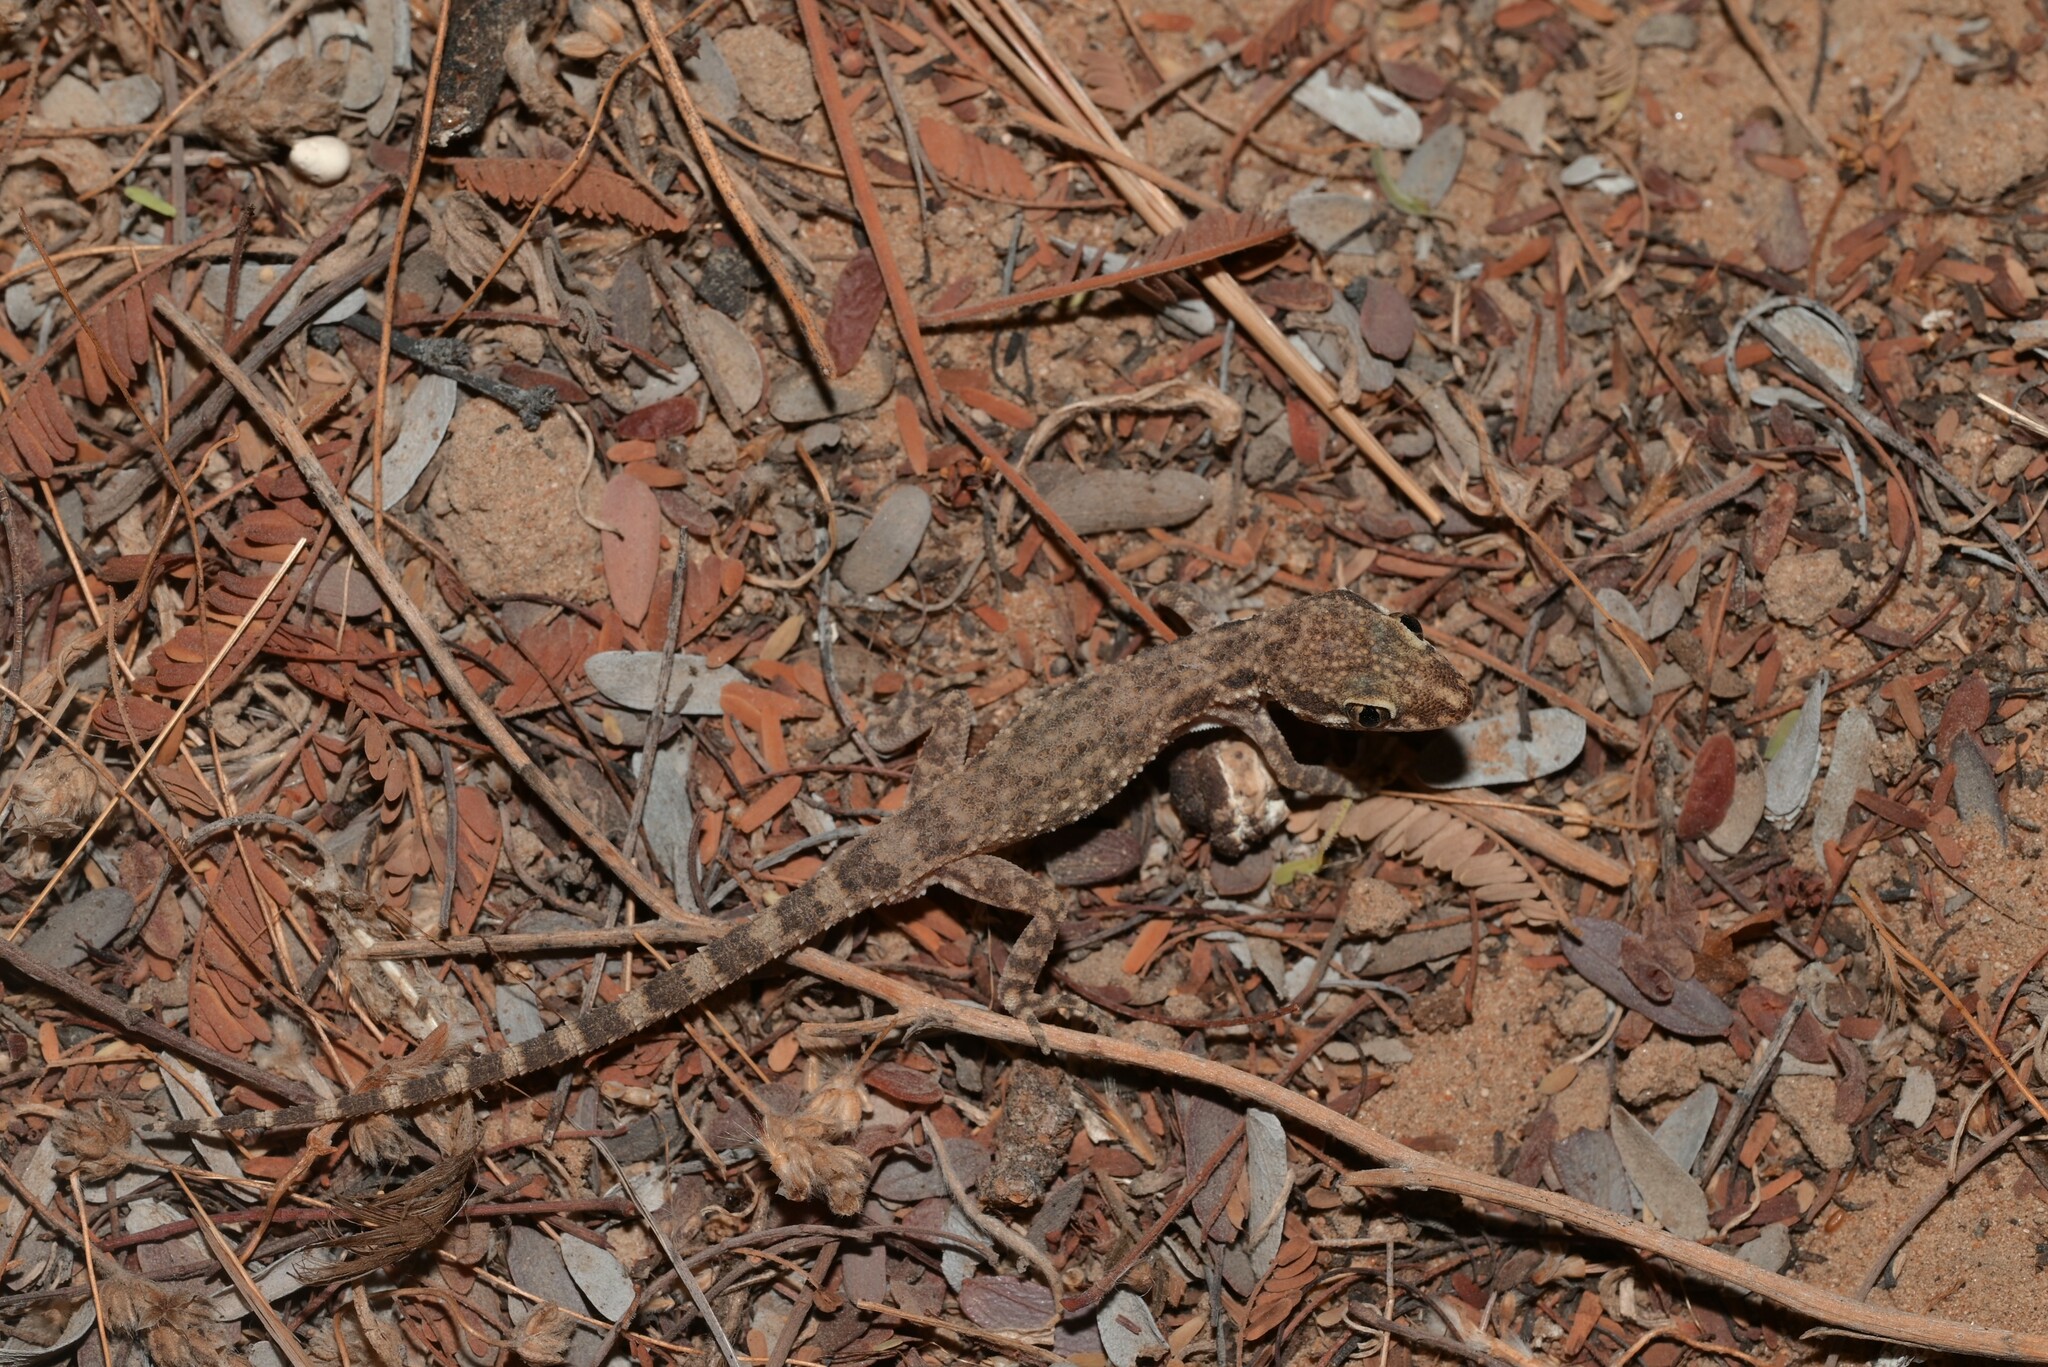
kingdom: Animalia
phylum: Chordata
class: Squamata
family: Gekkonidae
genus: Bunopus
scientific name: Bunopus tuberculatus
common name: Southern tuberculated gecko
